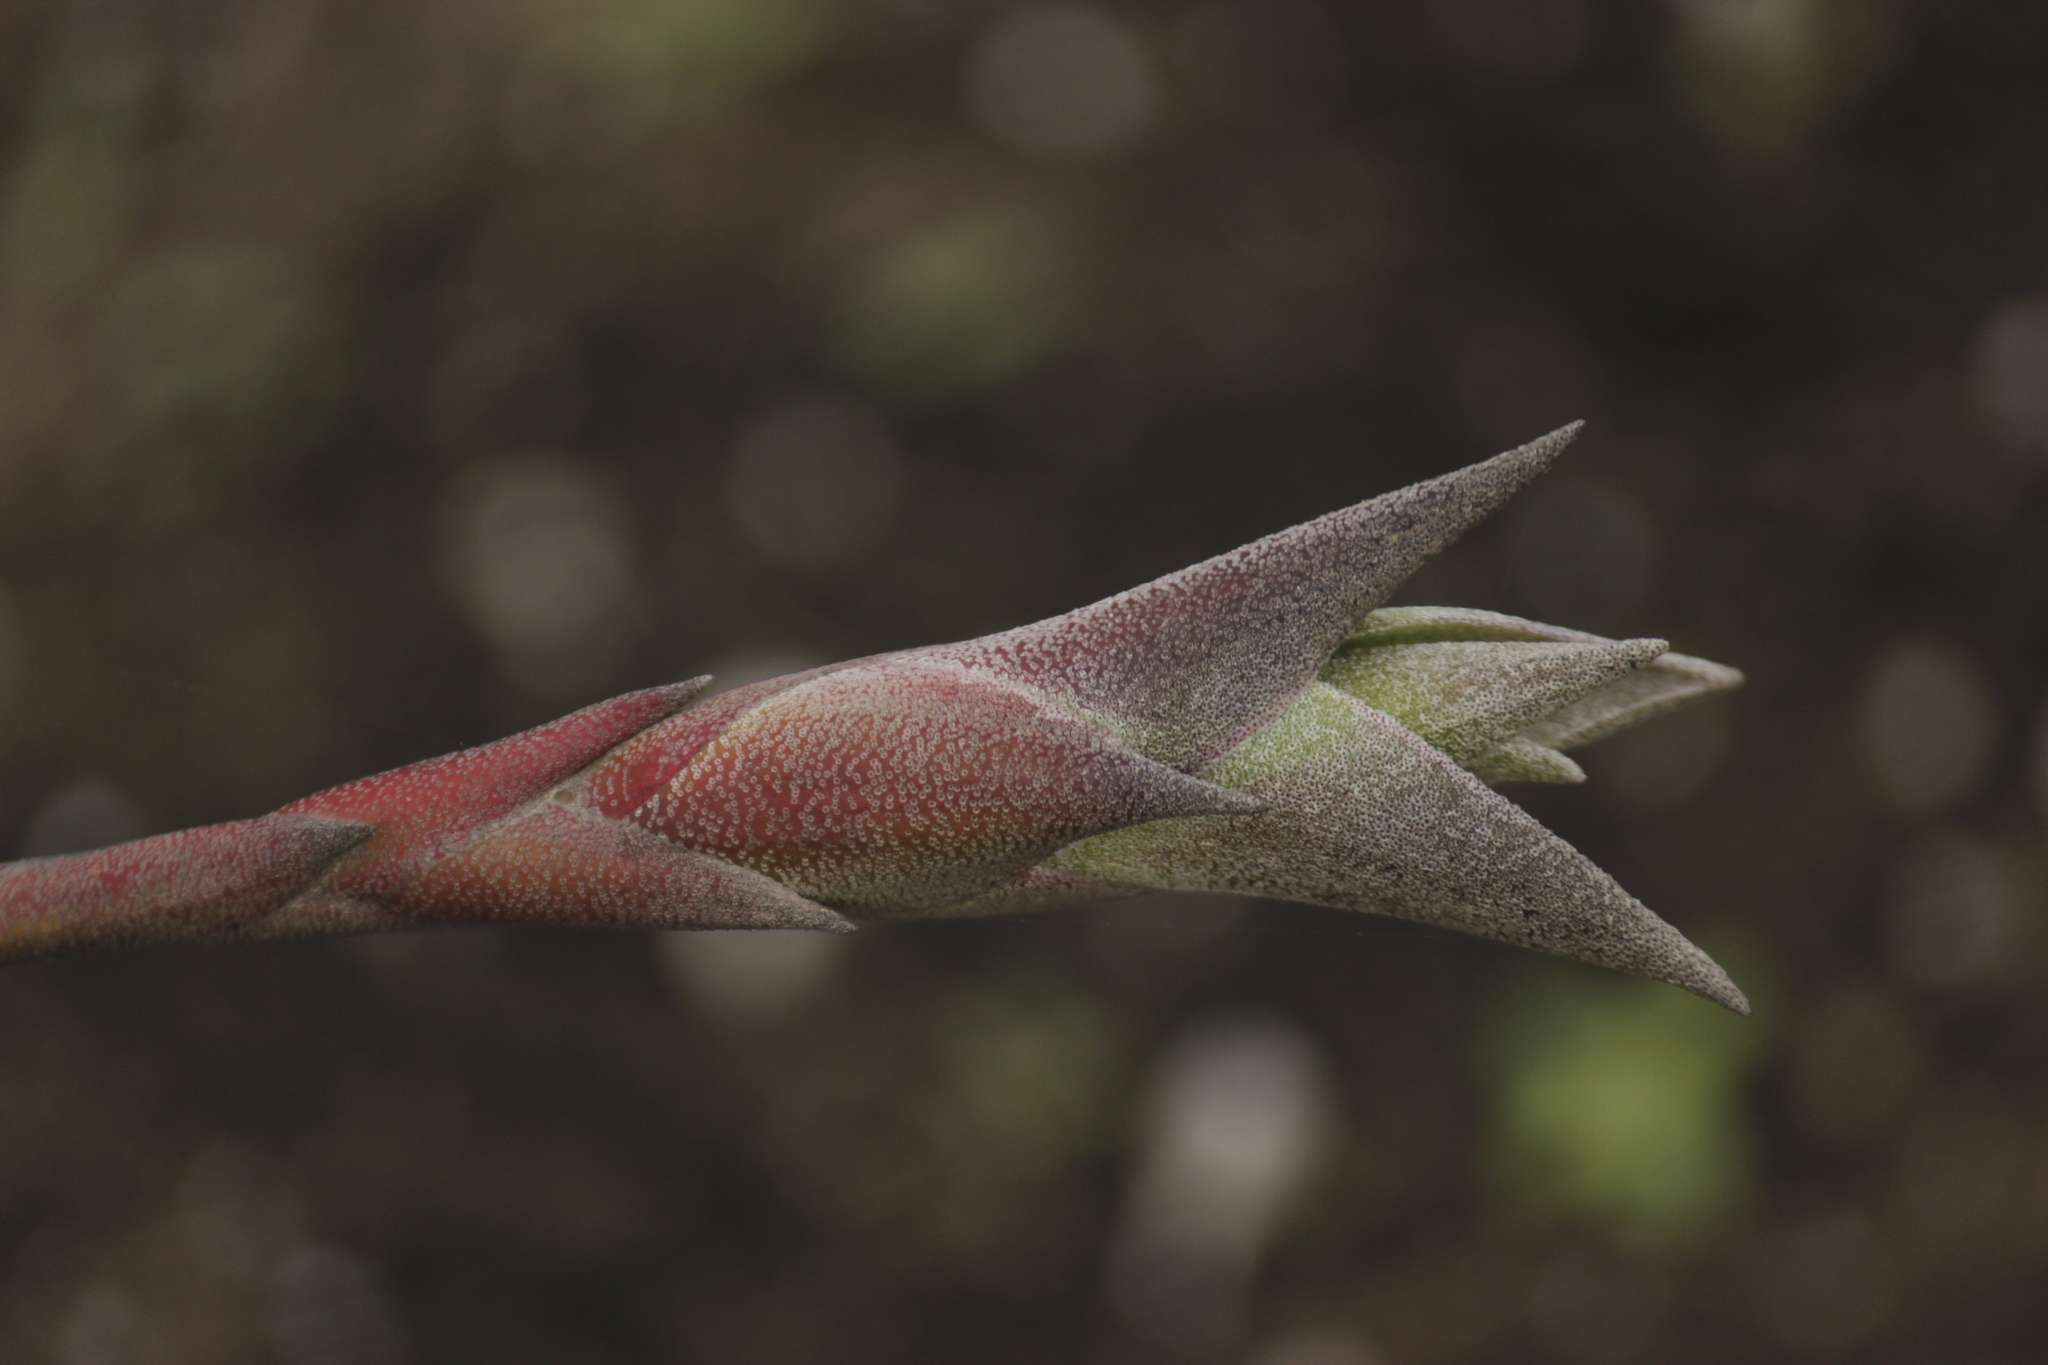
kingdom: Plantae
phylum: Tracheophyta
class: Liliopsida
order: Poales
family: Bromeliaceae
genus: Tillandsia
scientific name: Tillandsia latifolia
